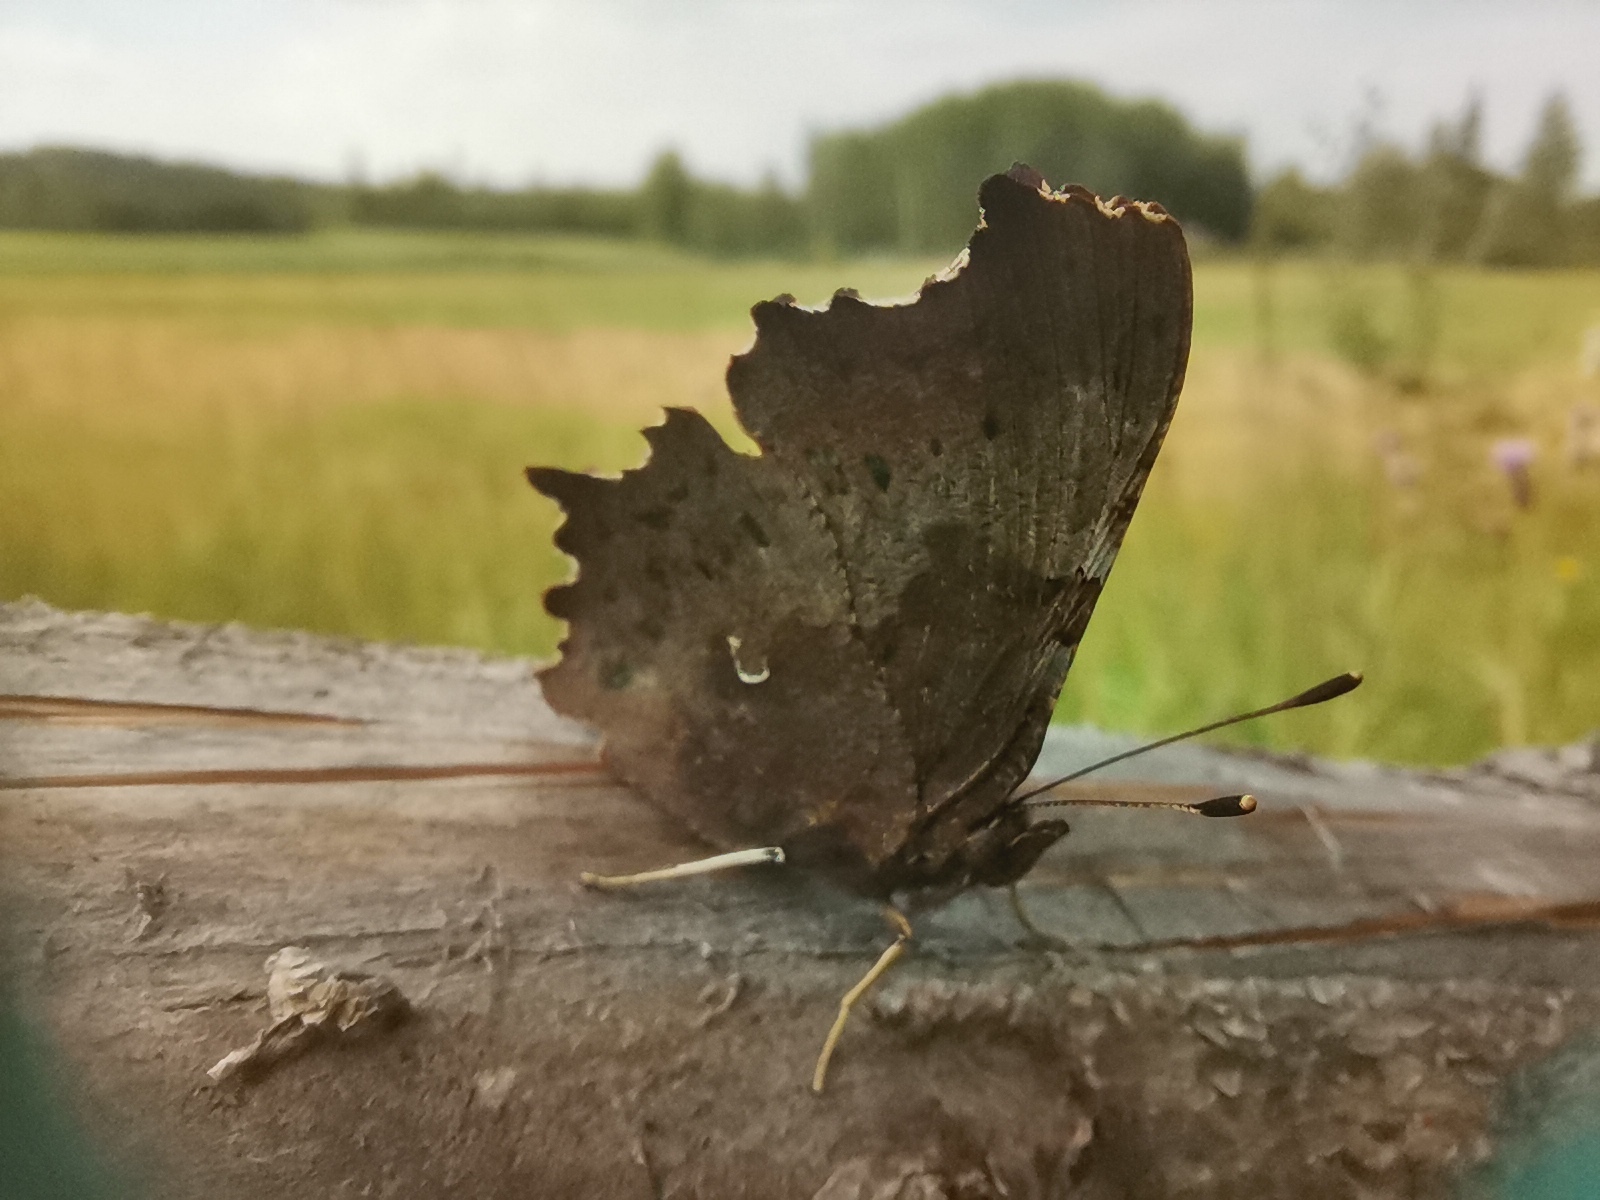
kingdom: Animalia
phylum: Arthropoda
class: Insecta
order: Lepidoptera
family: Nymphalidae
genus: Polygonia
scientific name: Polygonia c-album
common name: Comma
